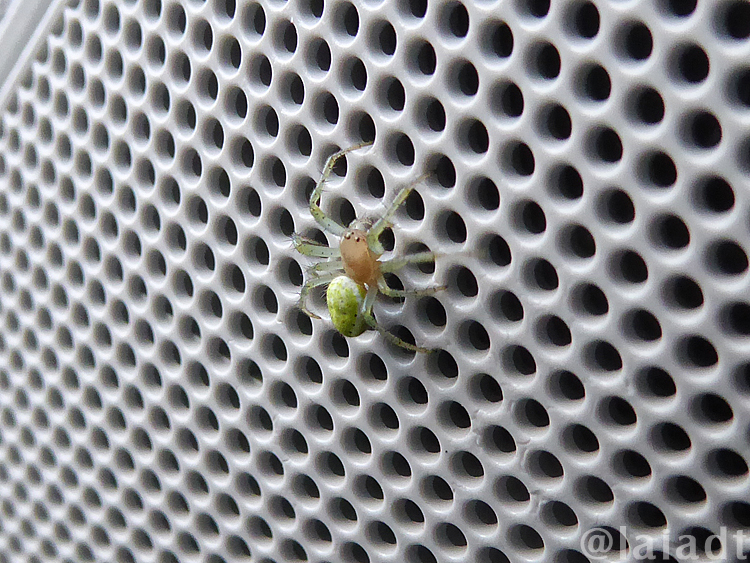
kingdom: Animalia
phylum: Arthropoda
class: Arachnida
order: Araneae
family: Araneidae
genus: Araniella
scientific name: Araniella
